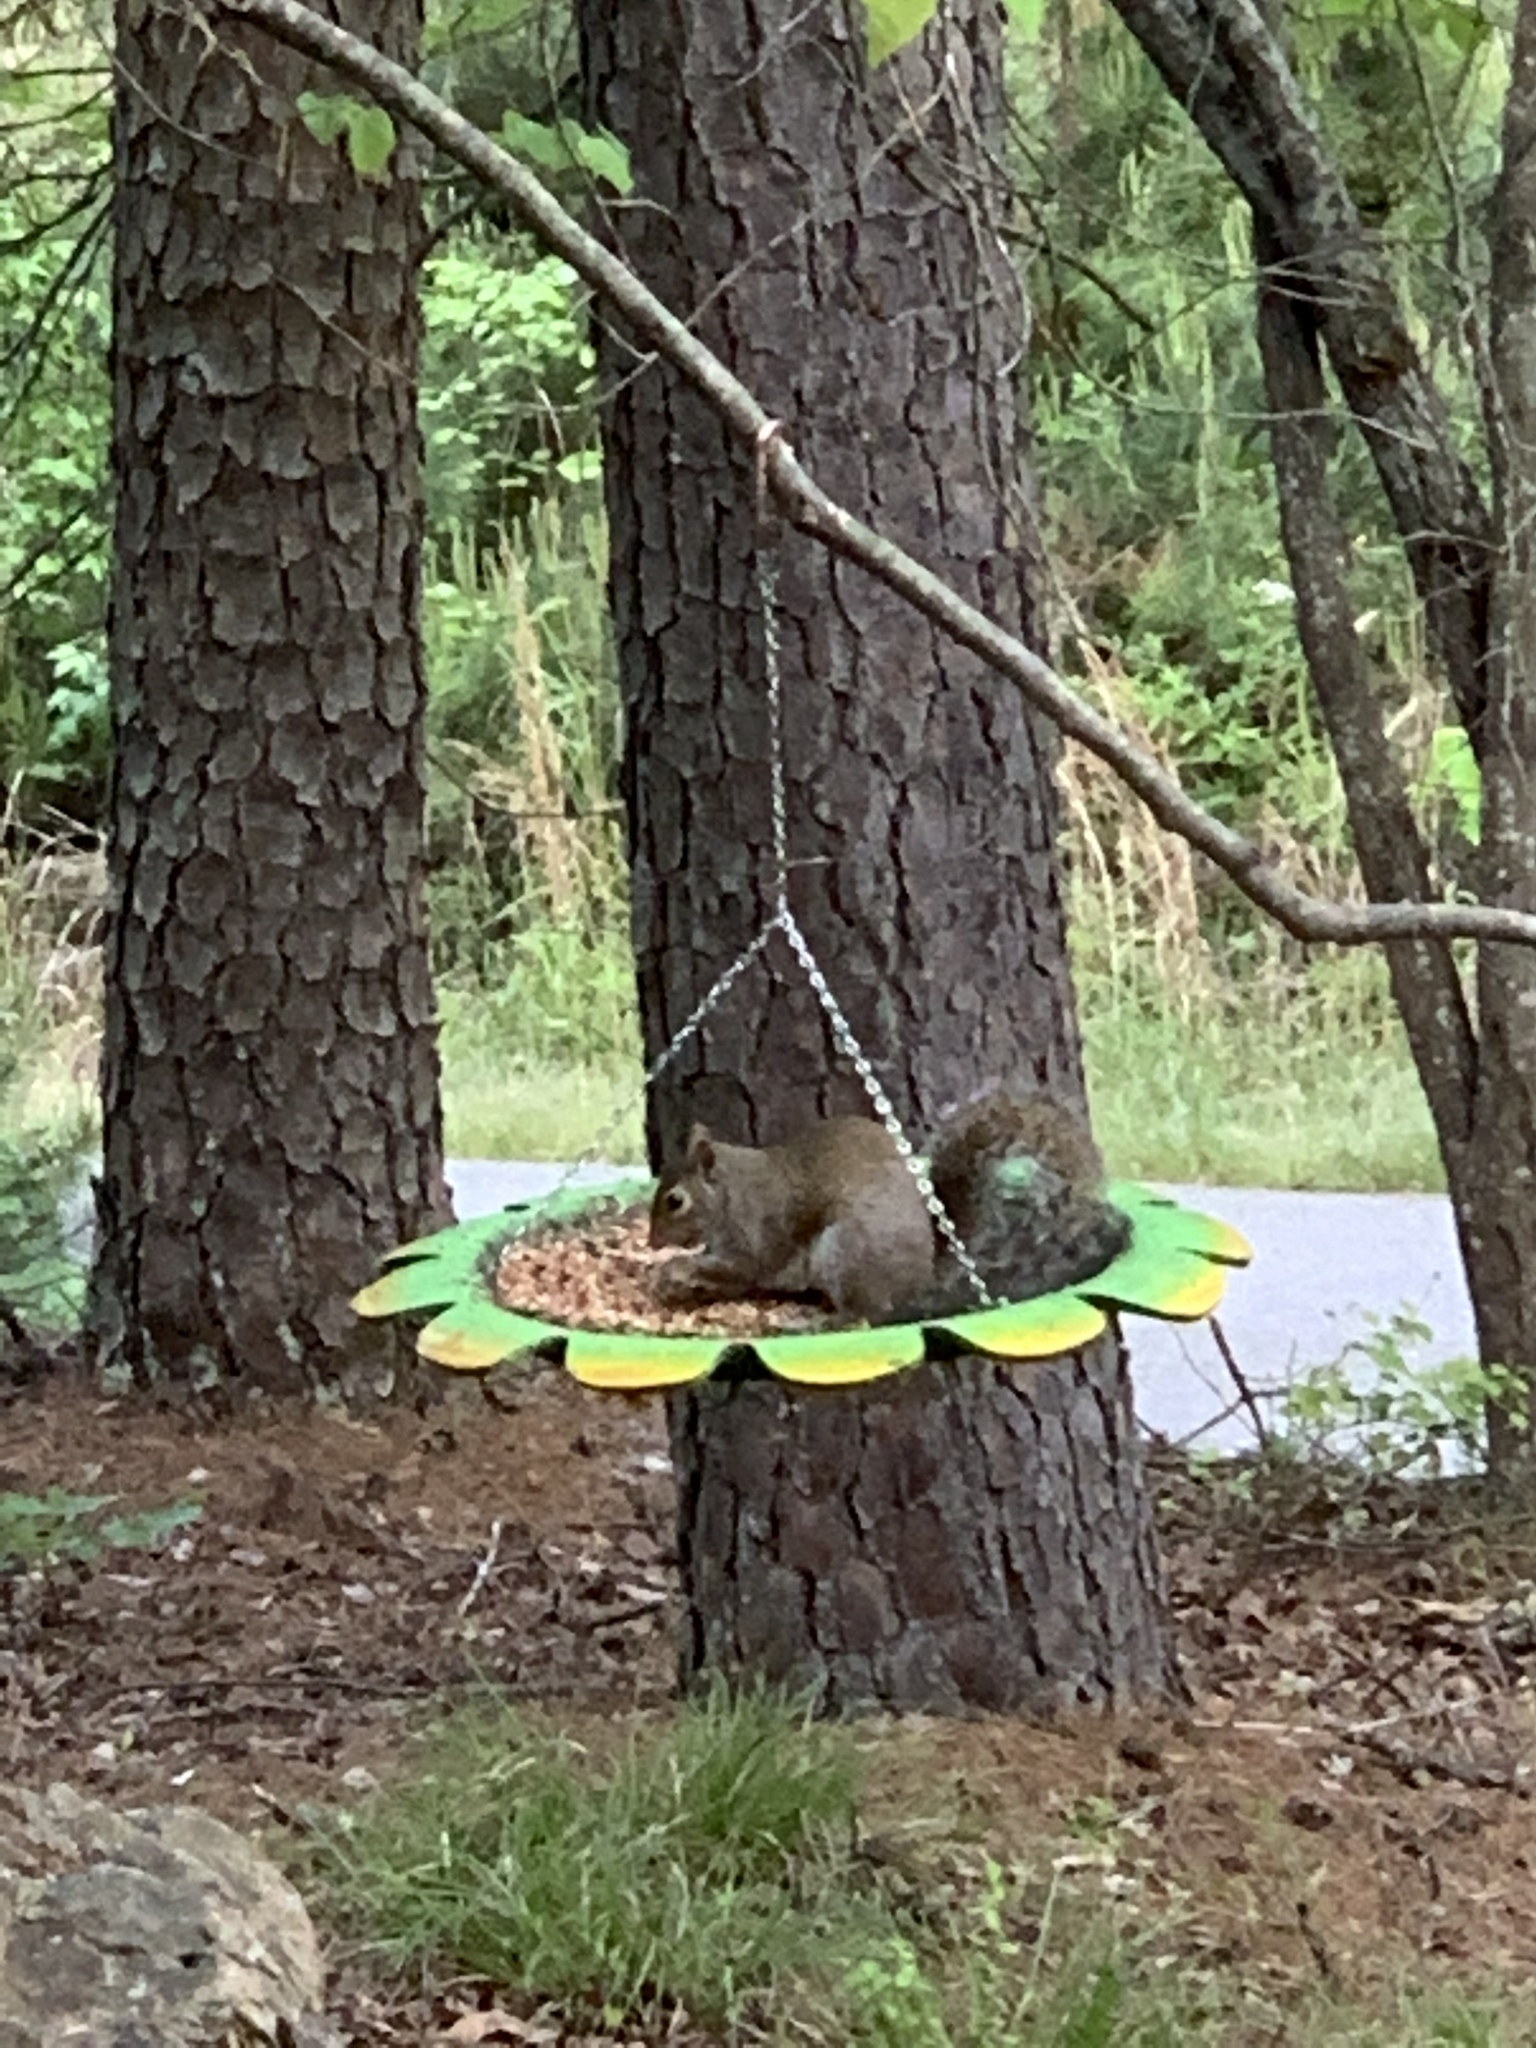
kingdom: Animalia
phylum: Chordata
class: Mammalia
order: Rodentia
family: Sciuridae
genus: Sciurus
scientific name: Sciurus carolinensis
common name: Eastern gray squirrel
